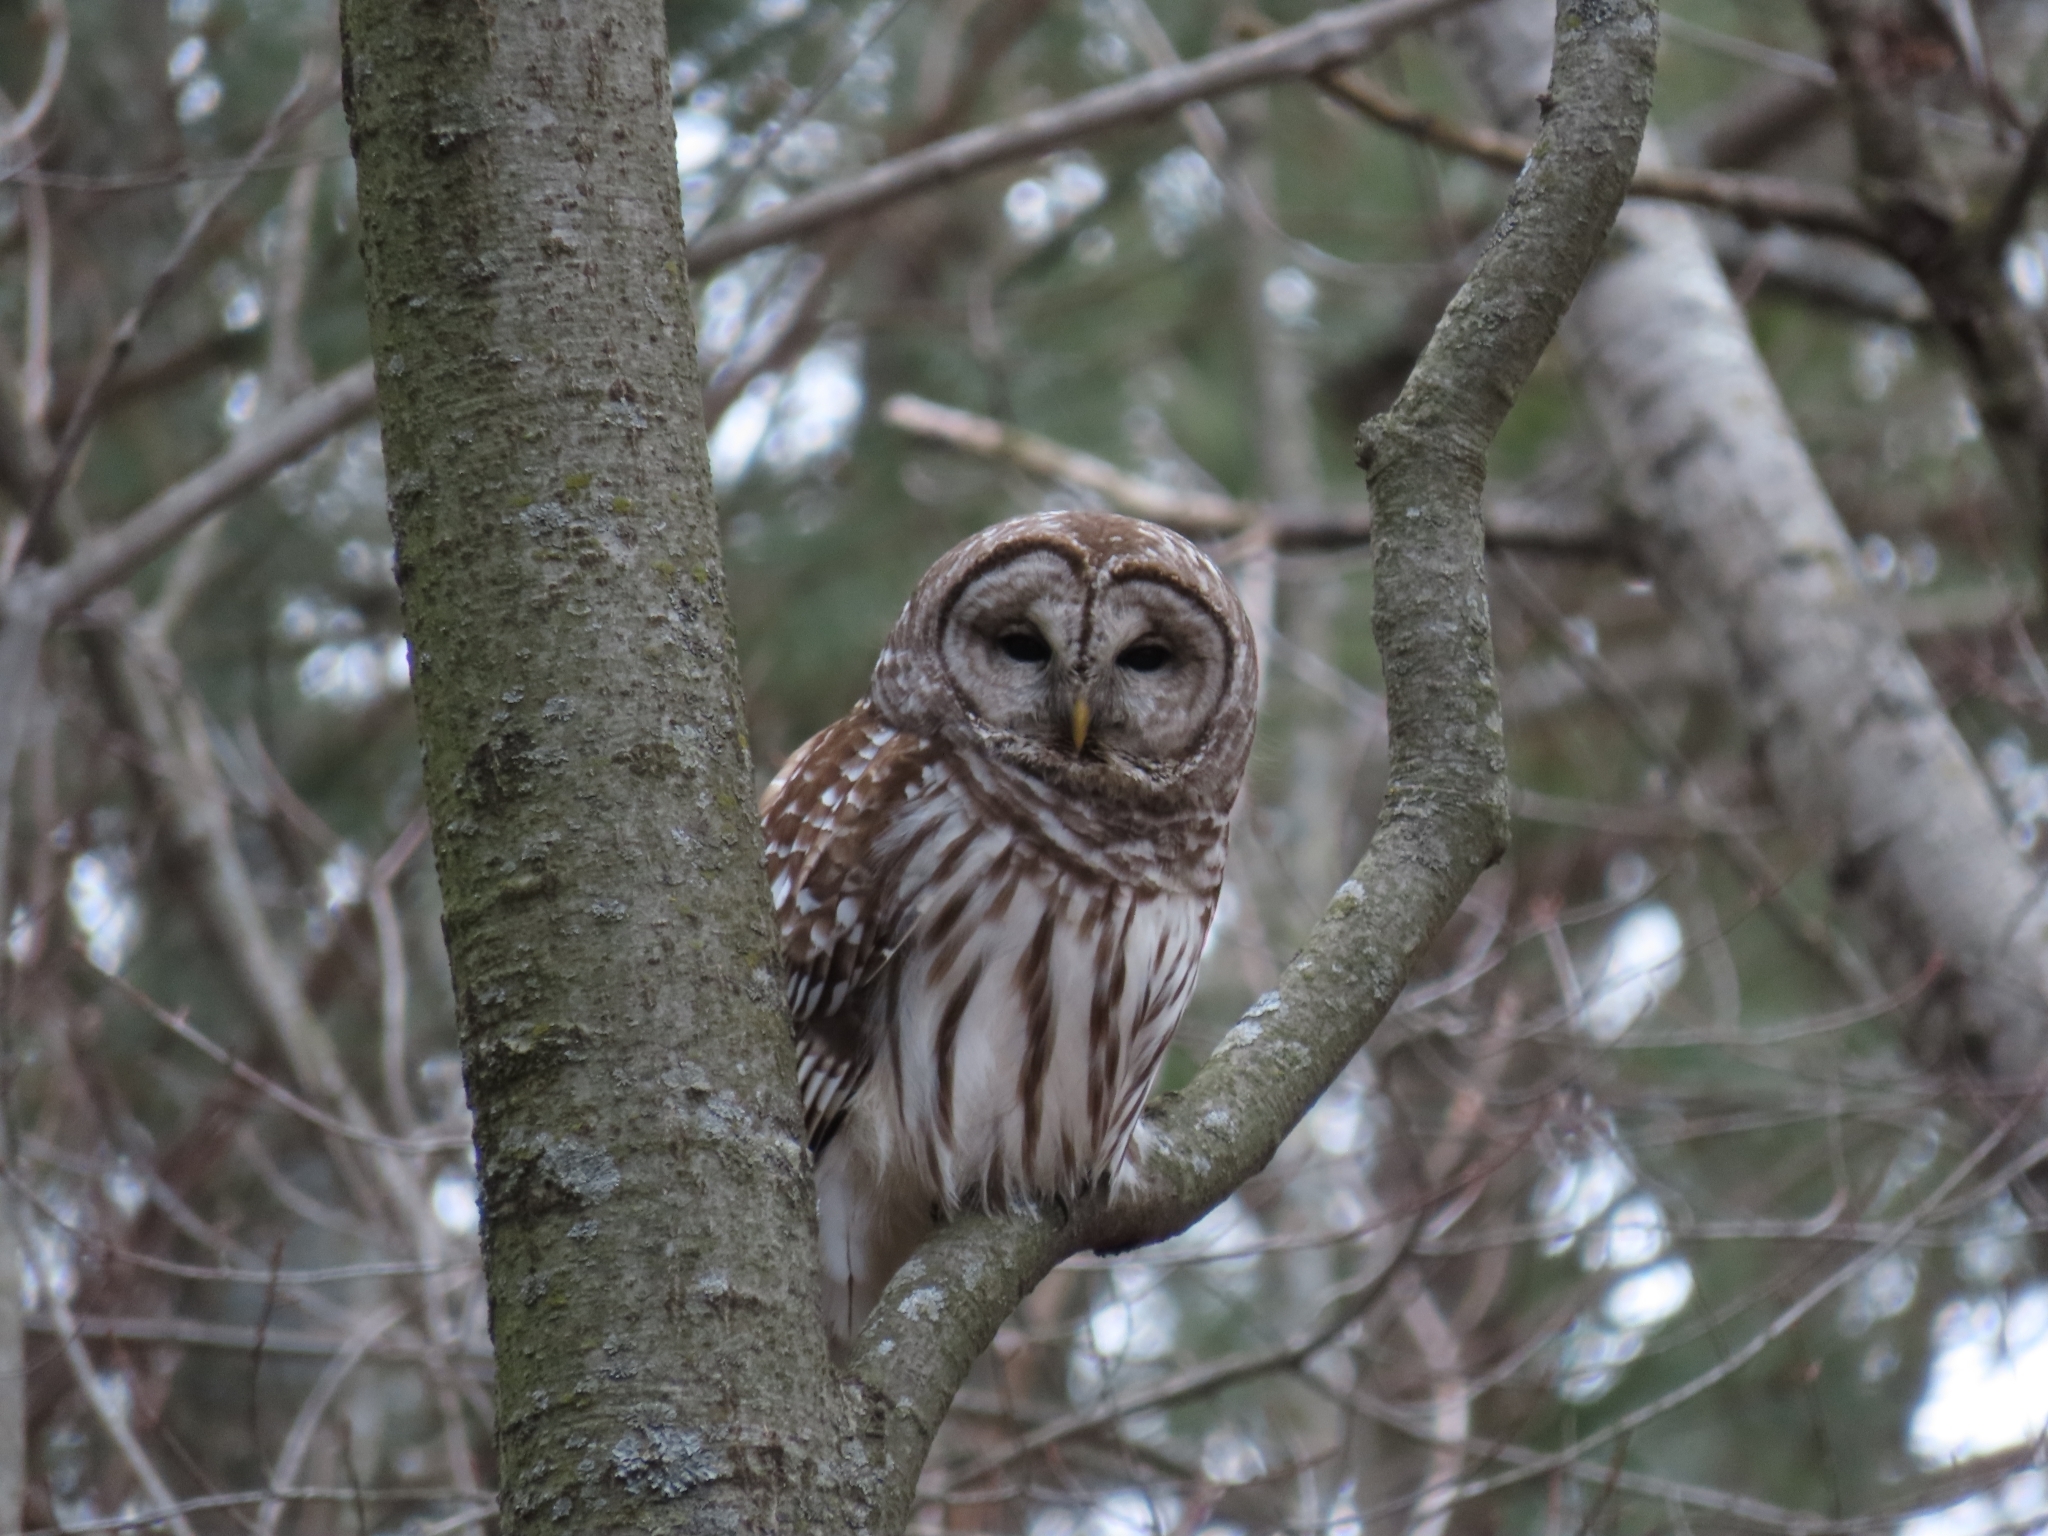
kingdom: Animalia
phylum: Chordata
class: Aves
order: Strigiformes
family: Strigidae
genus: Strix
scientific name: Strix varia
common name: Barred owl
